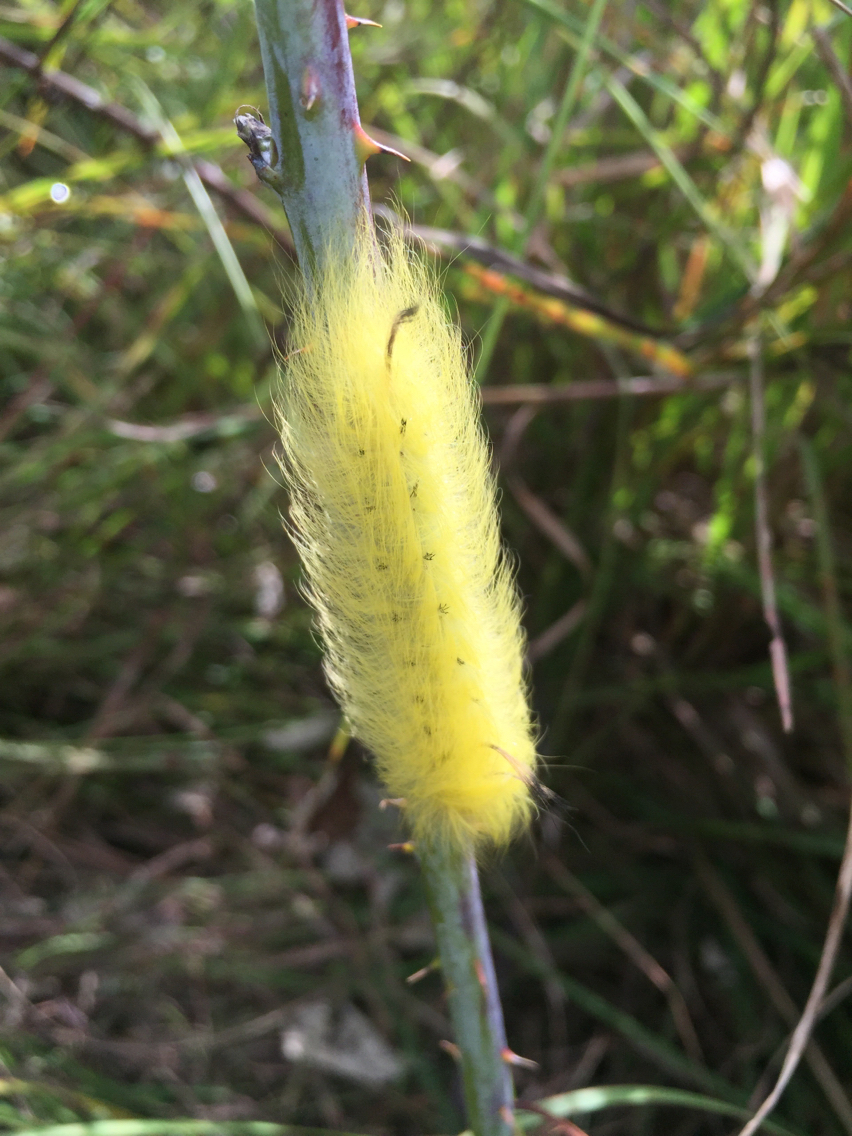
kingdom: Animalia
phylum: Arthropoda
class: Insecta
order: Lepidoptera
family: Apatelodidae
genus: Hygrochroa
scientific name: Hygrochroa Apatelodes torrefacta
